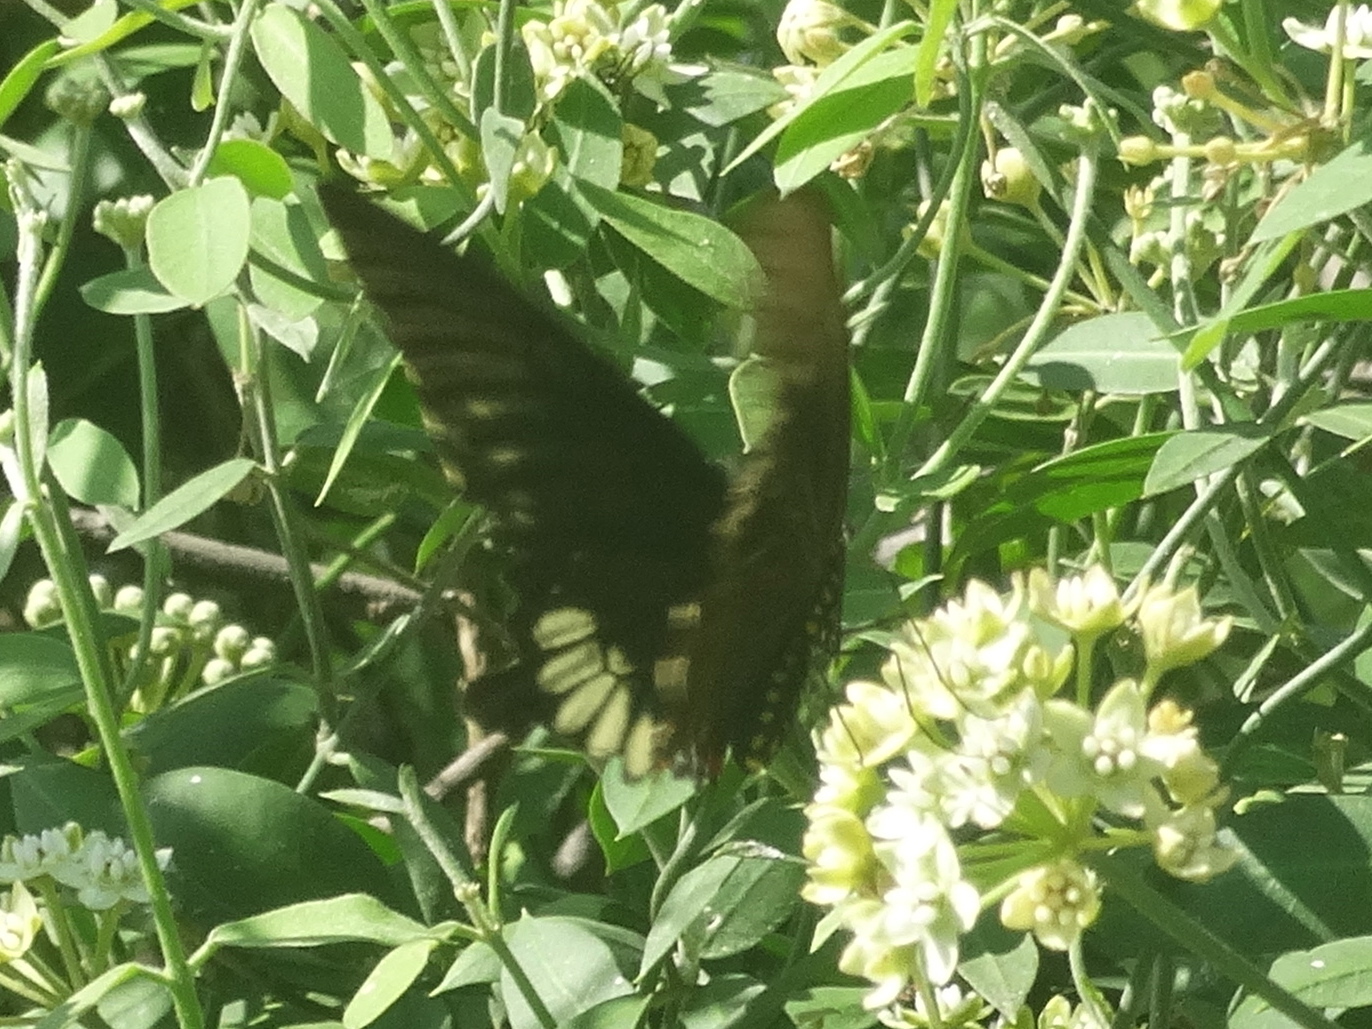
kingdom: Animalia
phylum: Arthropoda
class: Insecta
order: Lepidoptera
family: Papilionidae
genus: Battus
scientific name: Battus laodamas
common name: Green-patch swallowtail
